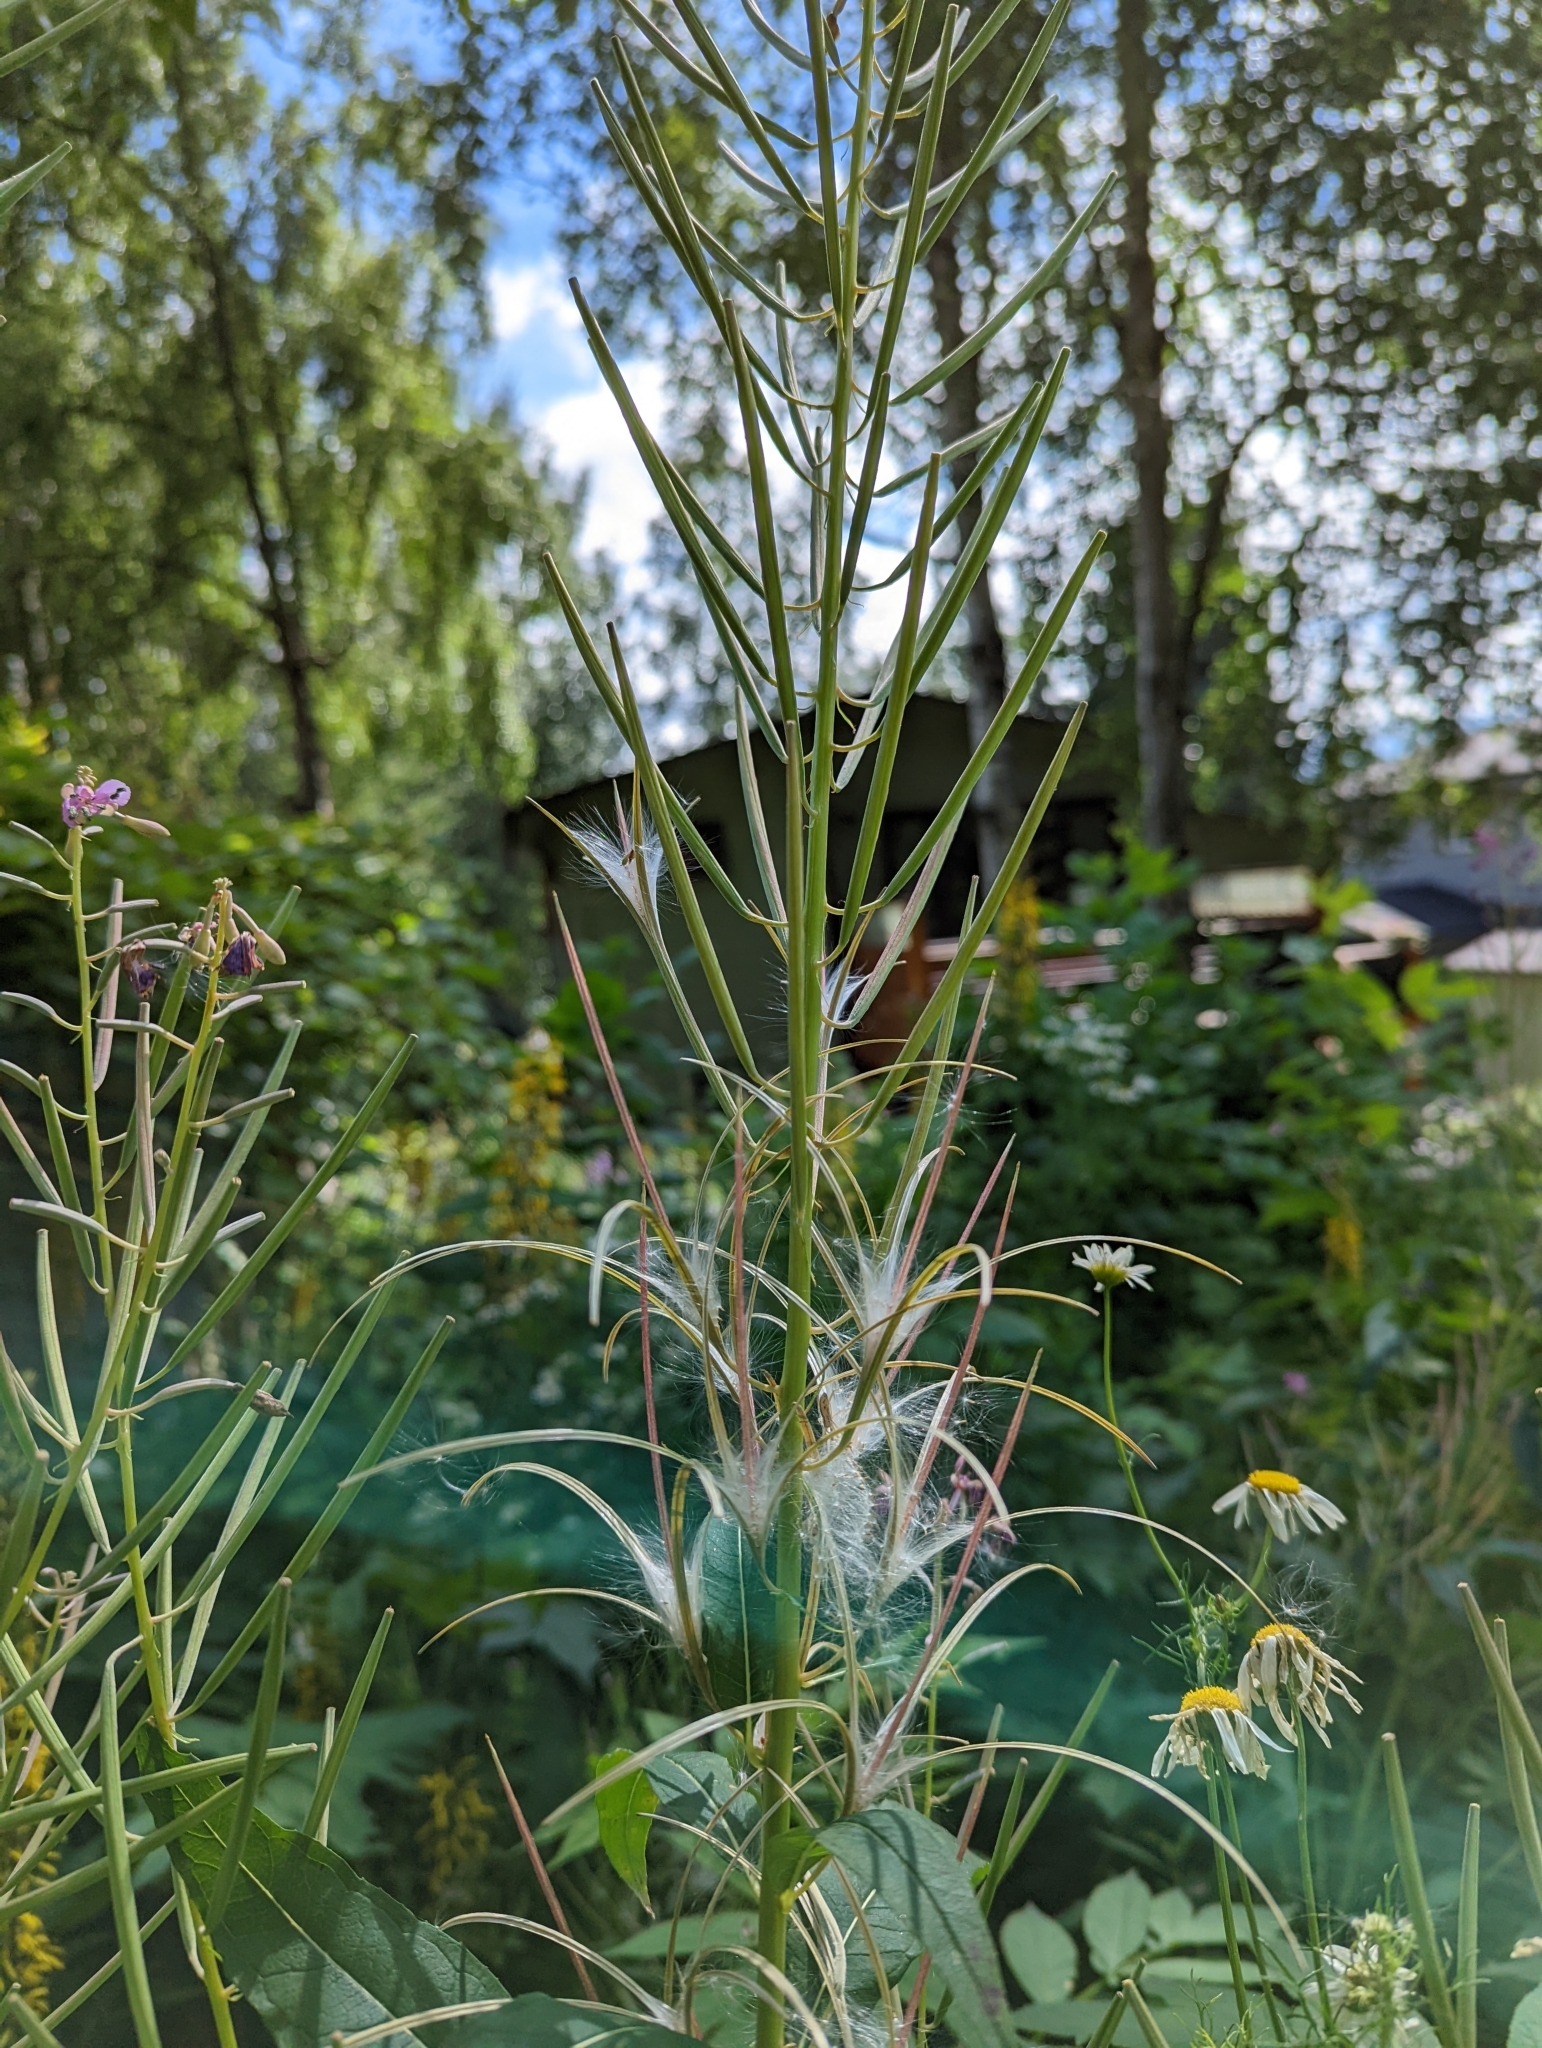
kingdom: Plantae
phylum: Tracheophyta
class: Magnoliopsida
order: Myrtales
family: Onagraceae
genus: Chamaenerion
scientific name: Chamaenerion angustifolium
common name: Fireweed
